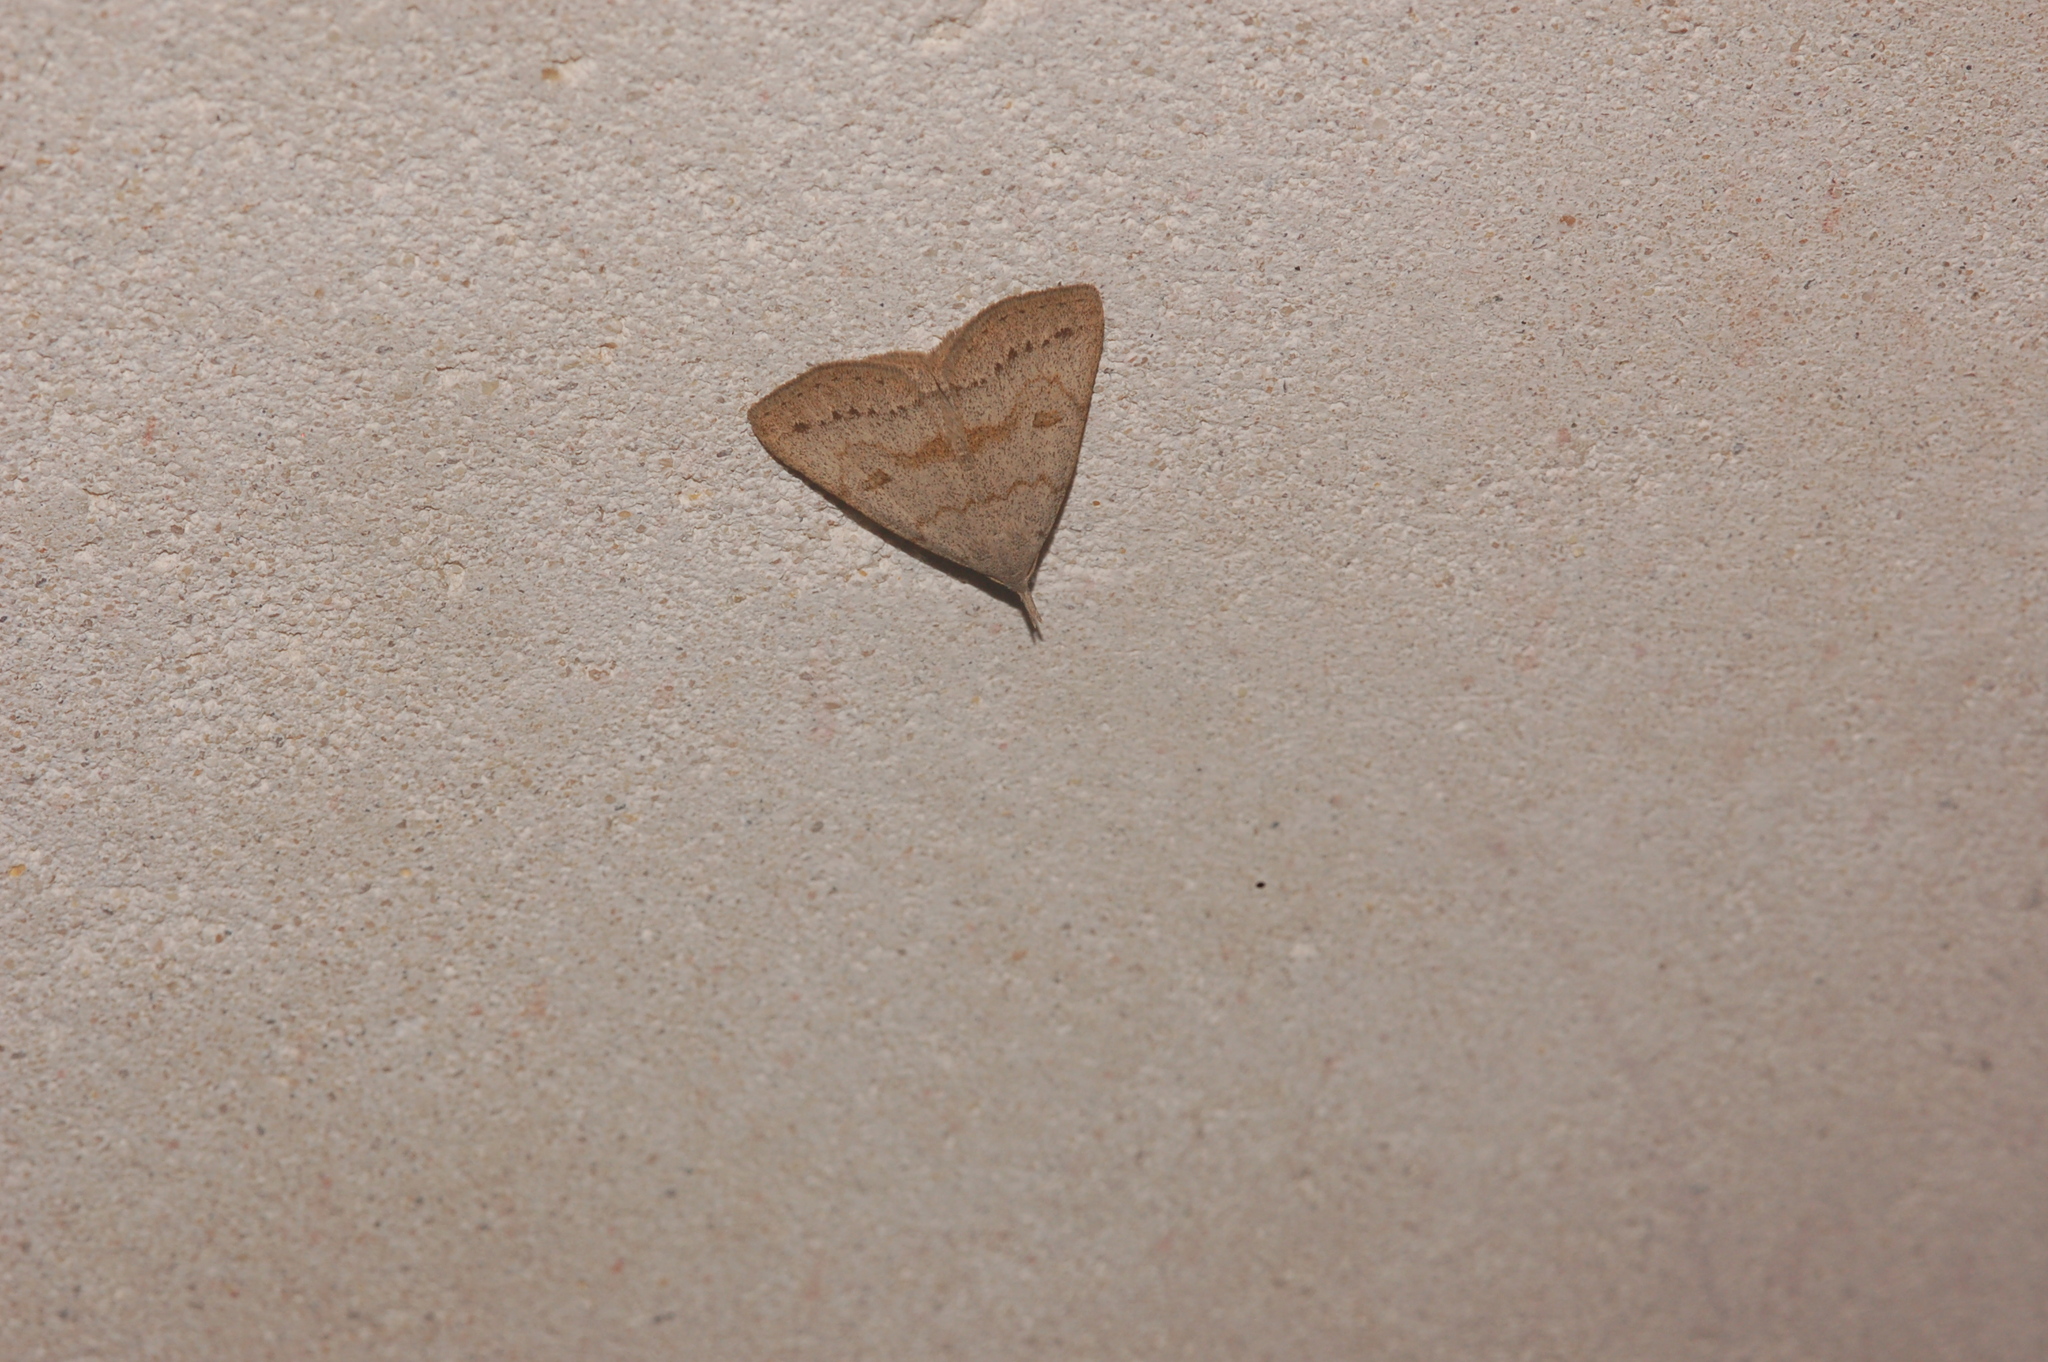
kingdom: Animalia
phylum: Arthropoda
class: Insecta
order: Lepidoptera
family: Erebidae
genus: Macrochilo
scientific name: Macrochilo morbidalis
